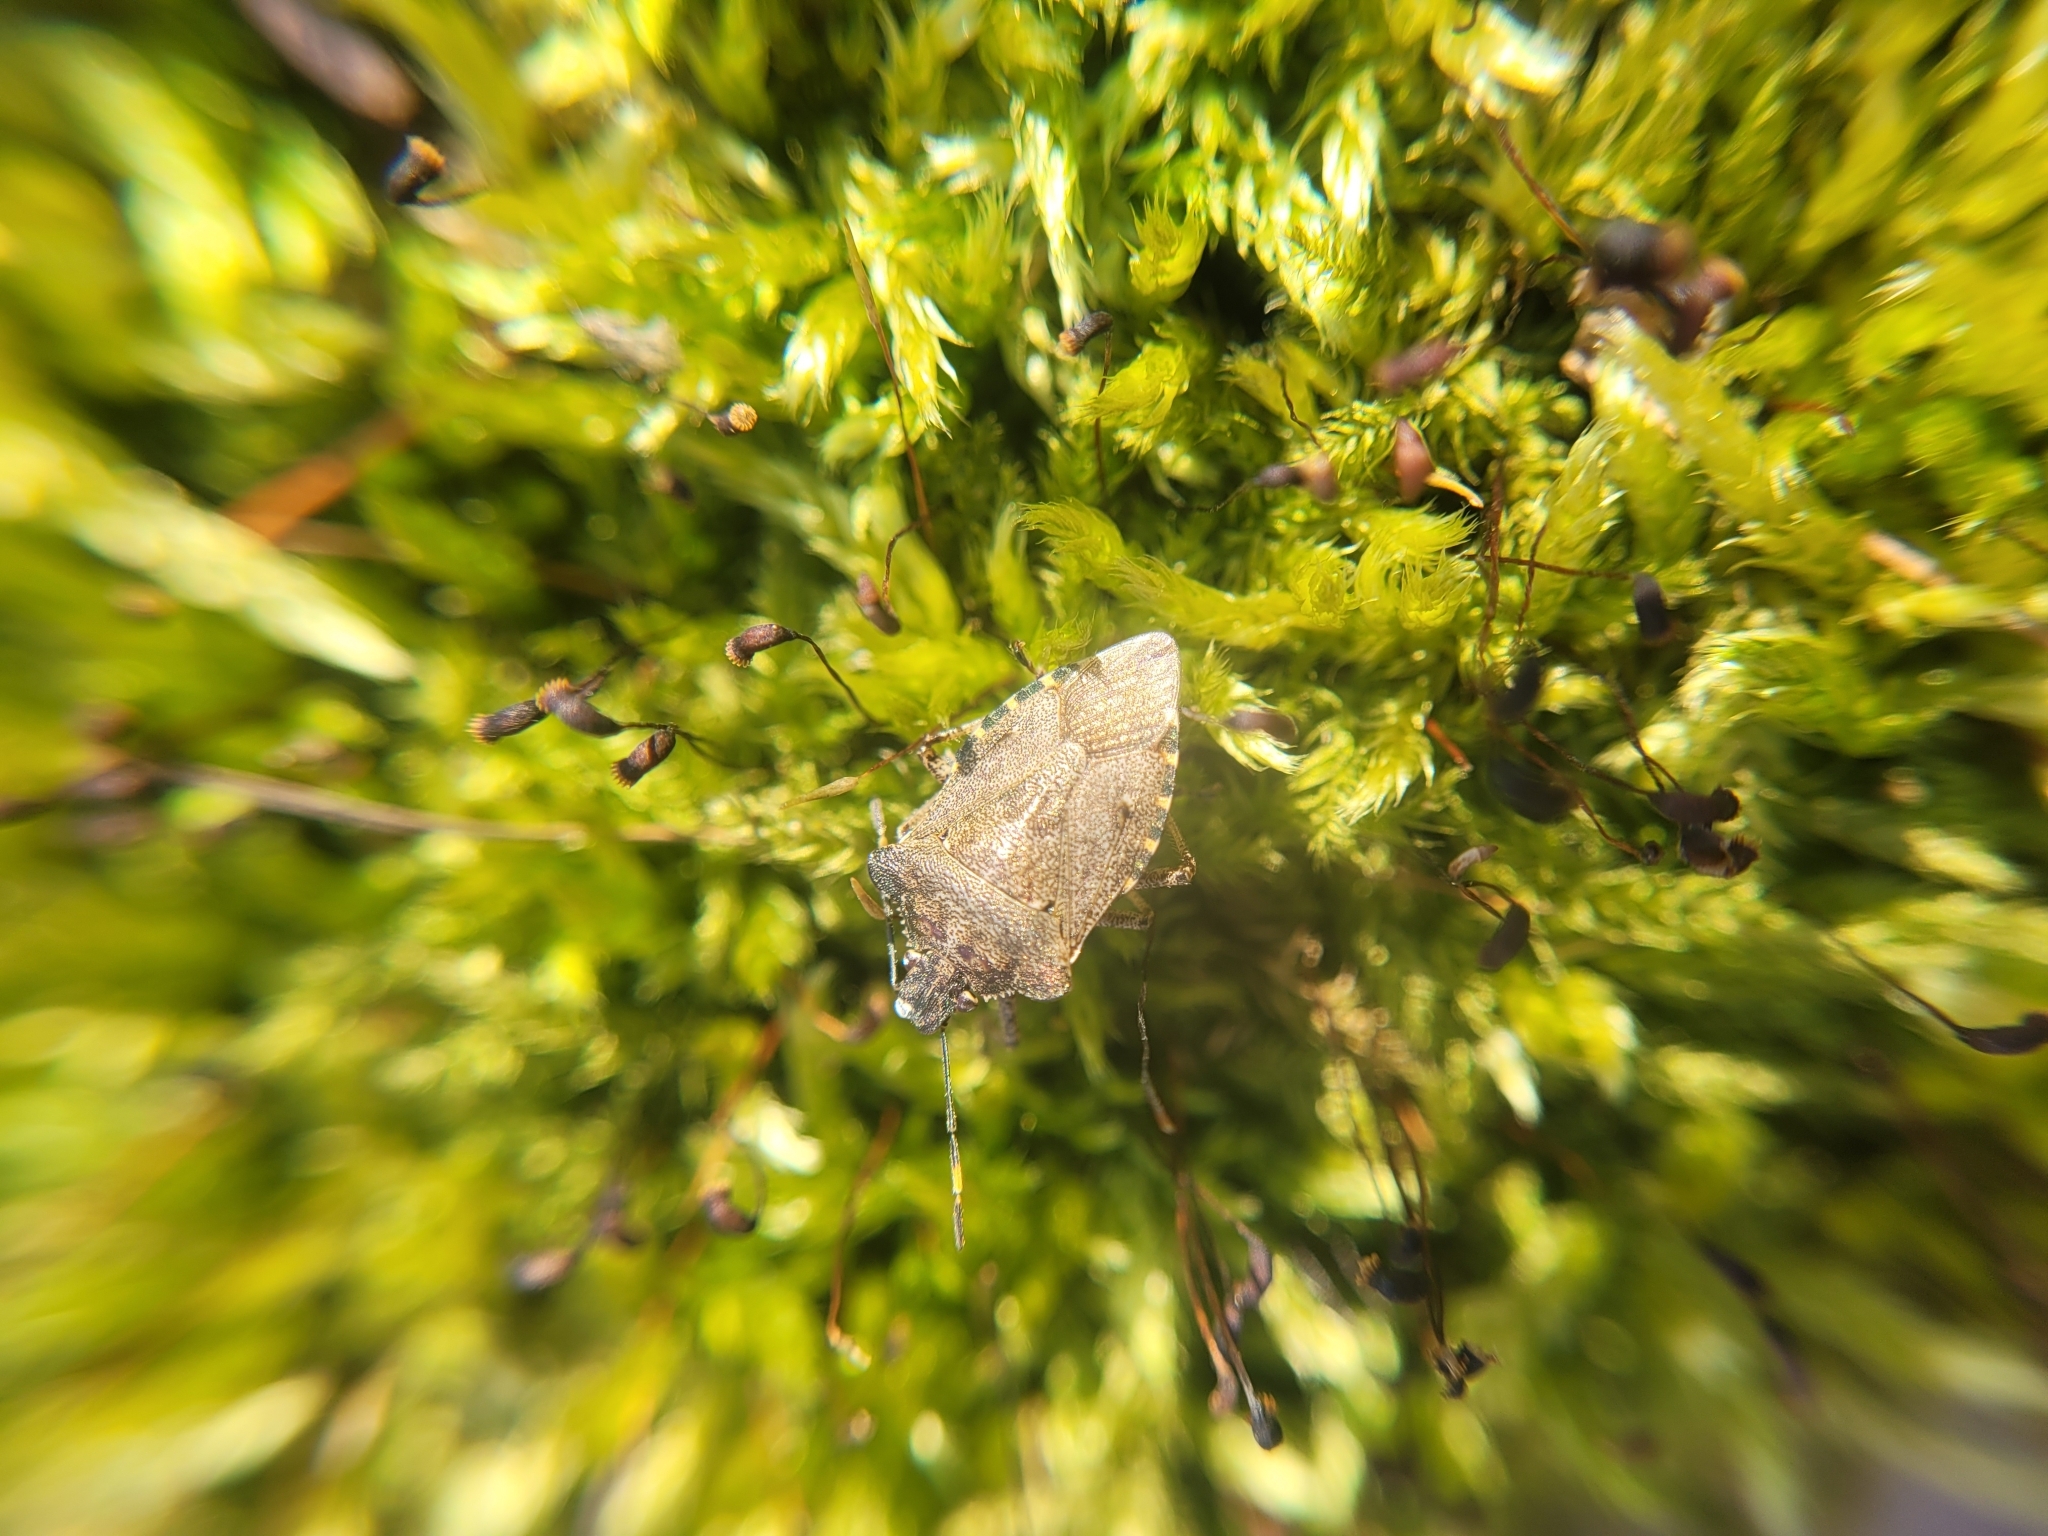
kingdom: Animalia
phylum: Arthropoda
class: Insecta
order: Hemiptera
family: Pentatomidae
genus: Troilus
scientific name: Troilus luridus
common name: Bronze shieldbug
